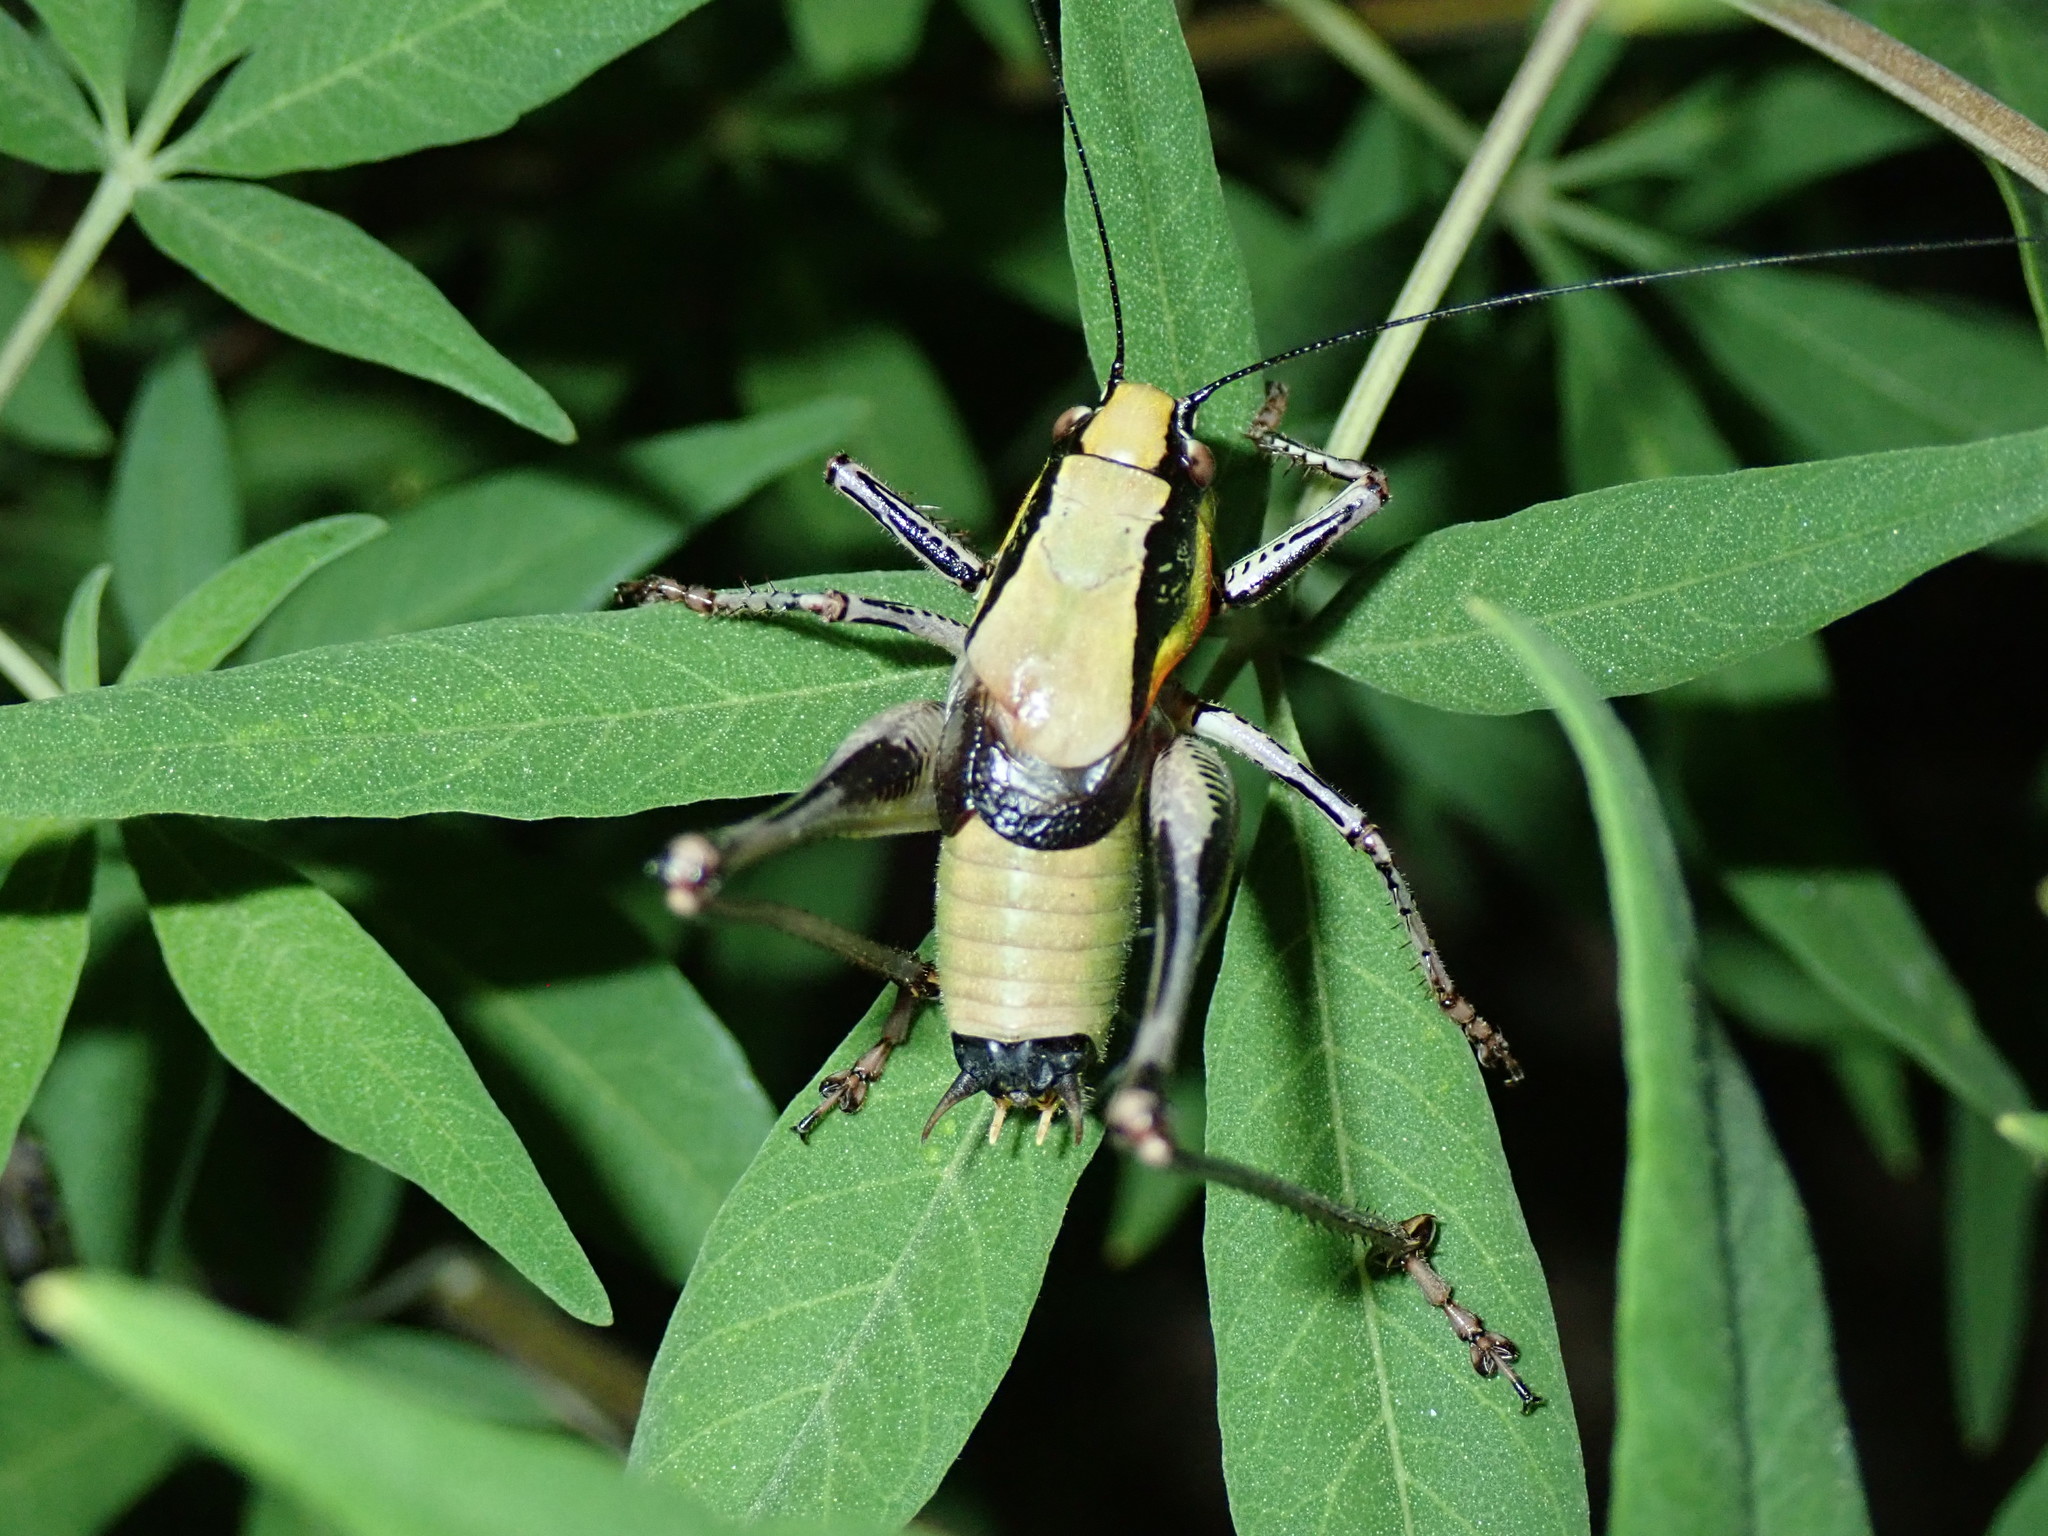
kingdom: Animalia
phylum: Arthropoda
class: Insecta
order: Orthoptera
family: Tettigoniidae
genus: Eupholidoptera
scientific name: Eupholidoptera schmidti
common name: Schmidt's marbled bush-cricket
